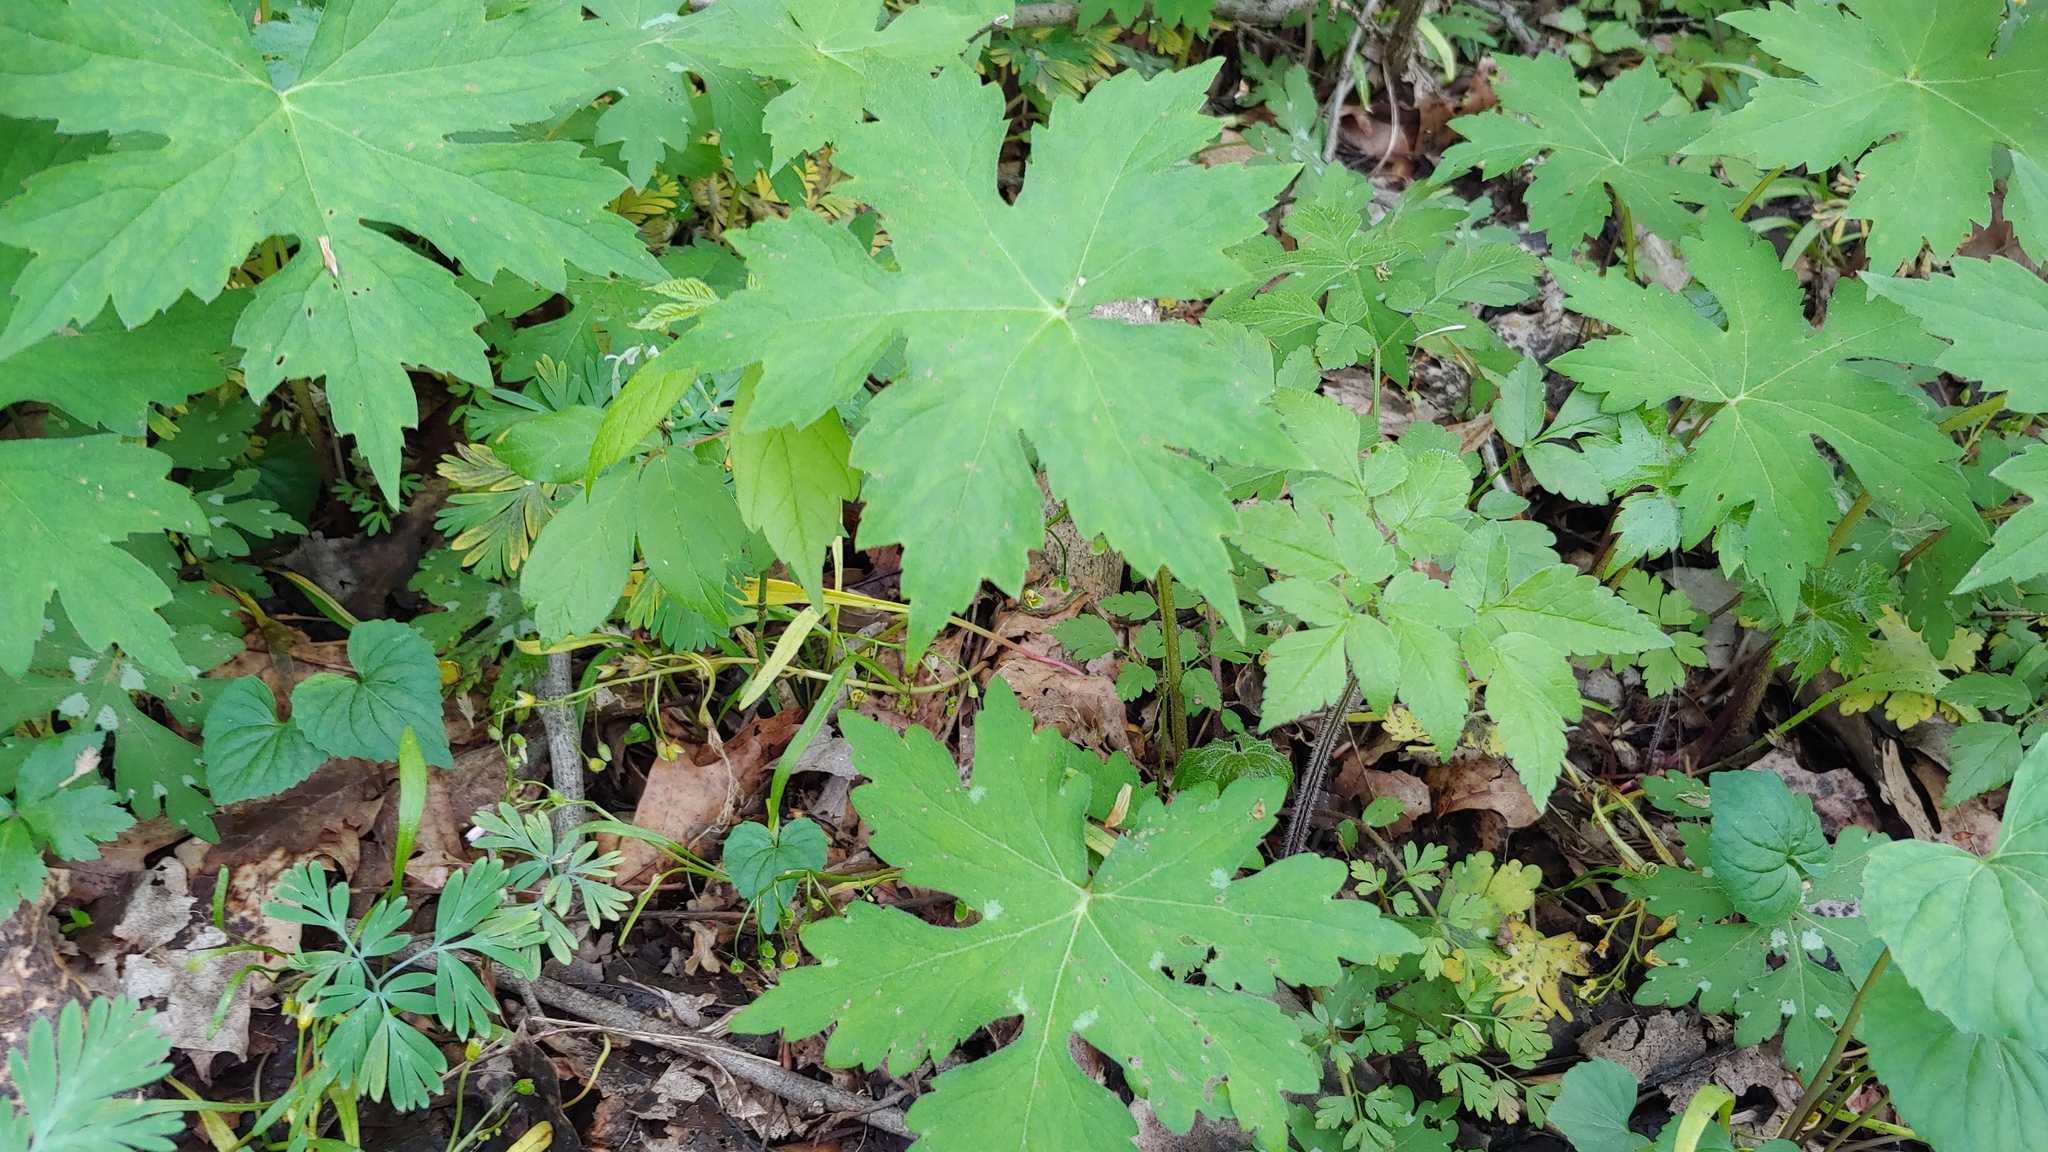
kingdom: Plantae
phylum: Tracheophyta
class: Magnoliopsida
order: Boraginales
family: Hydrophyllaceae
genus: Hydrophyllum
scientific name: Hydrophyllum canadense
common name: Canada waterleaf
